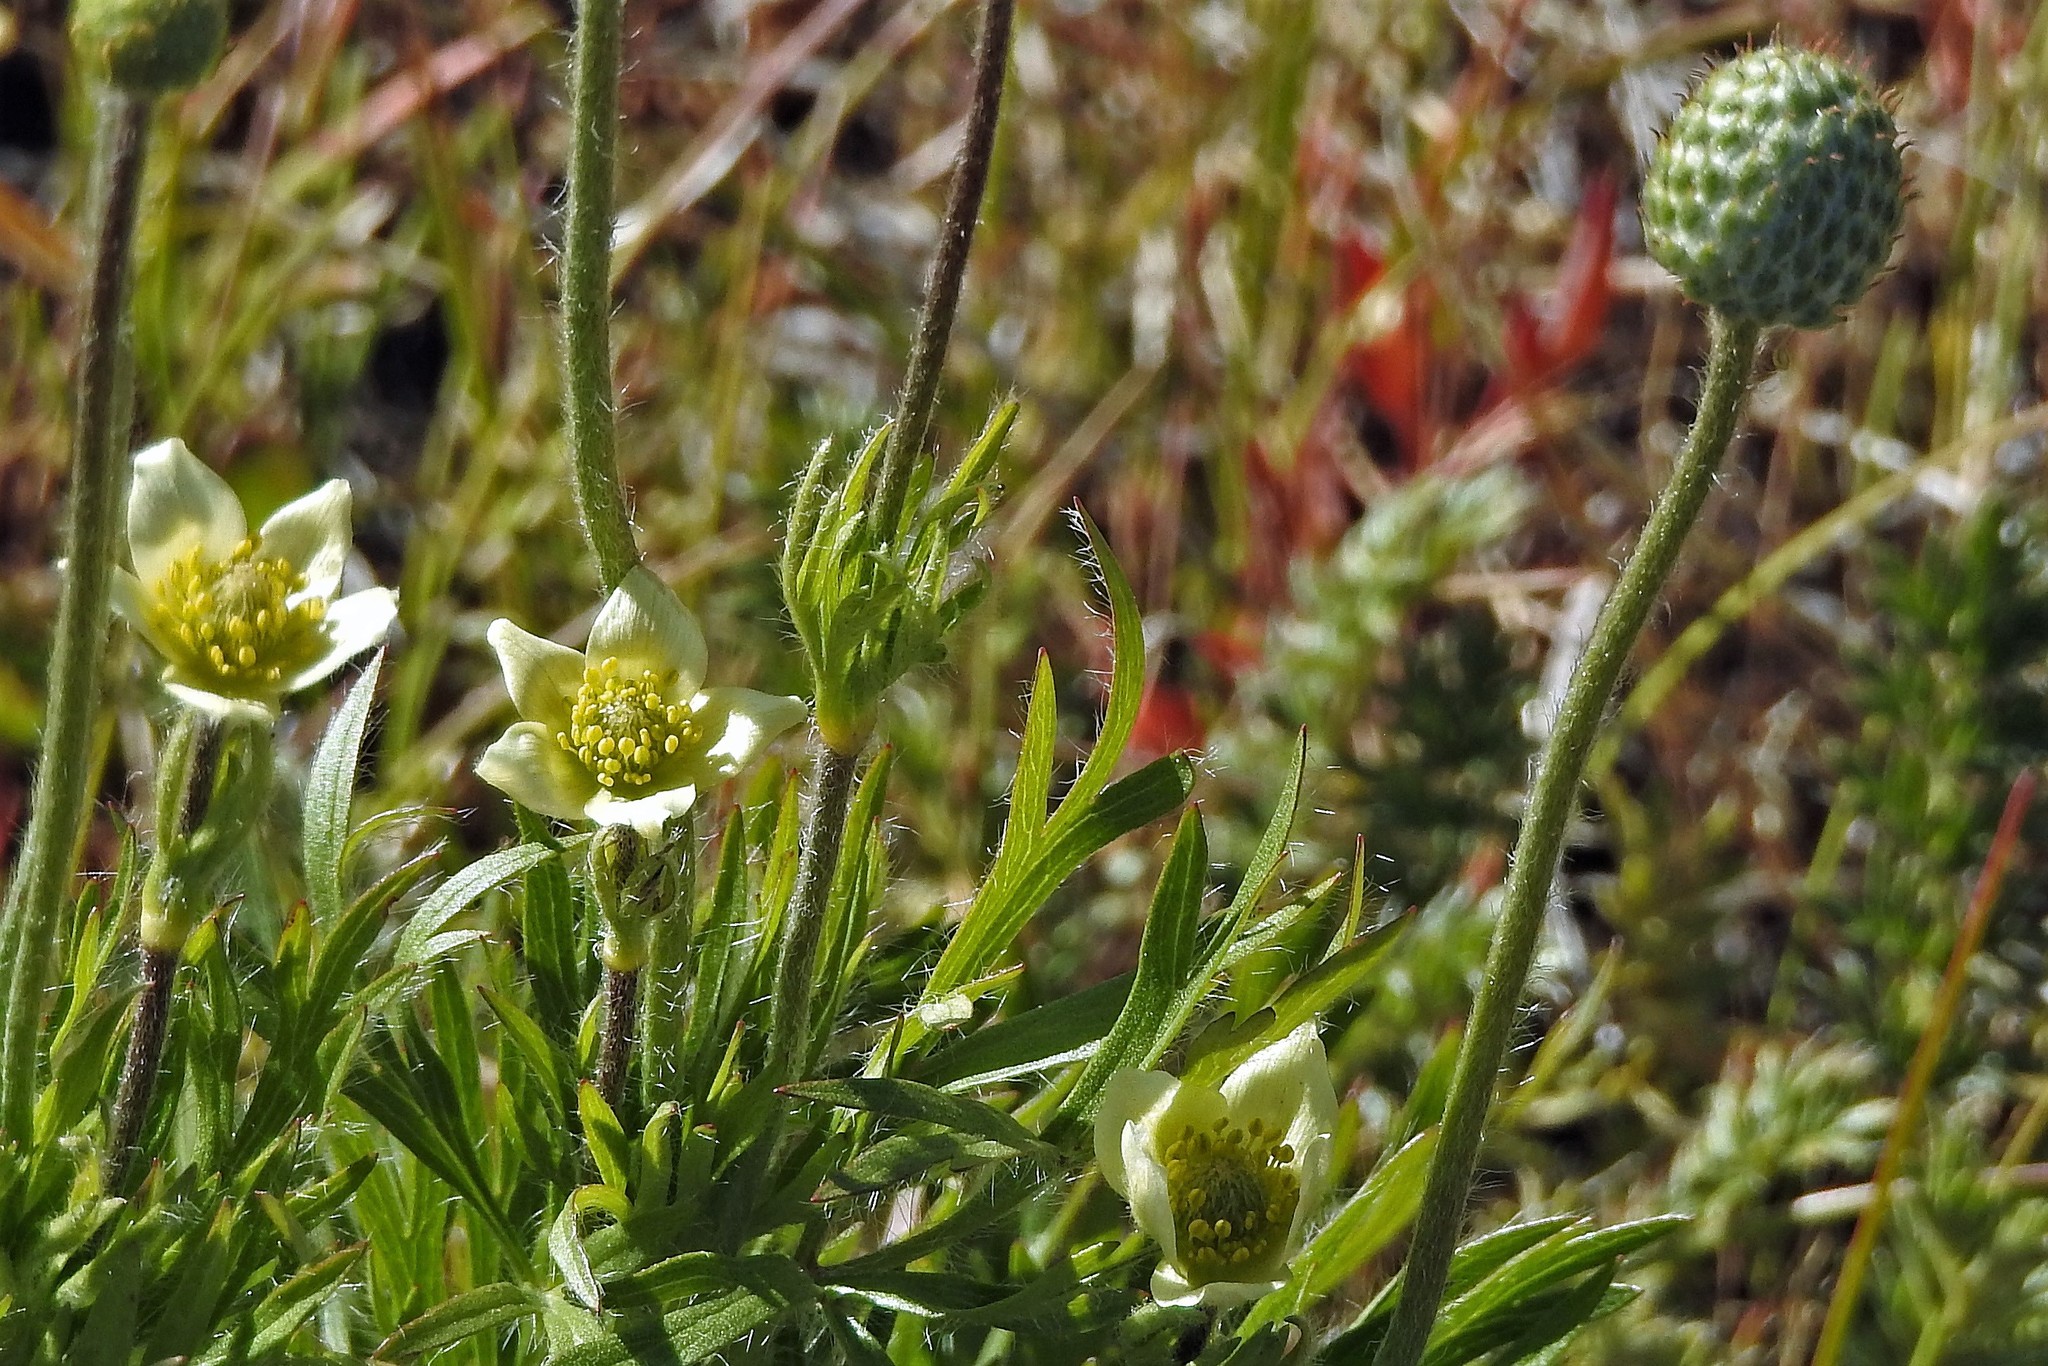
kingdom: Plantae
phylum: Tracheophyta
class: Magnoliopsida
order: Ranunculales
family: Ranunculaceae
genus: Anemone
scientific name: Anemone multifida
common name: Bird's-foot anemone
